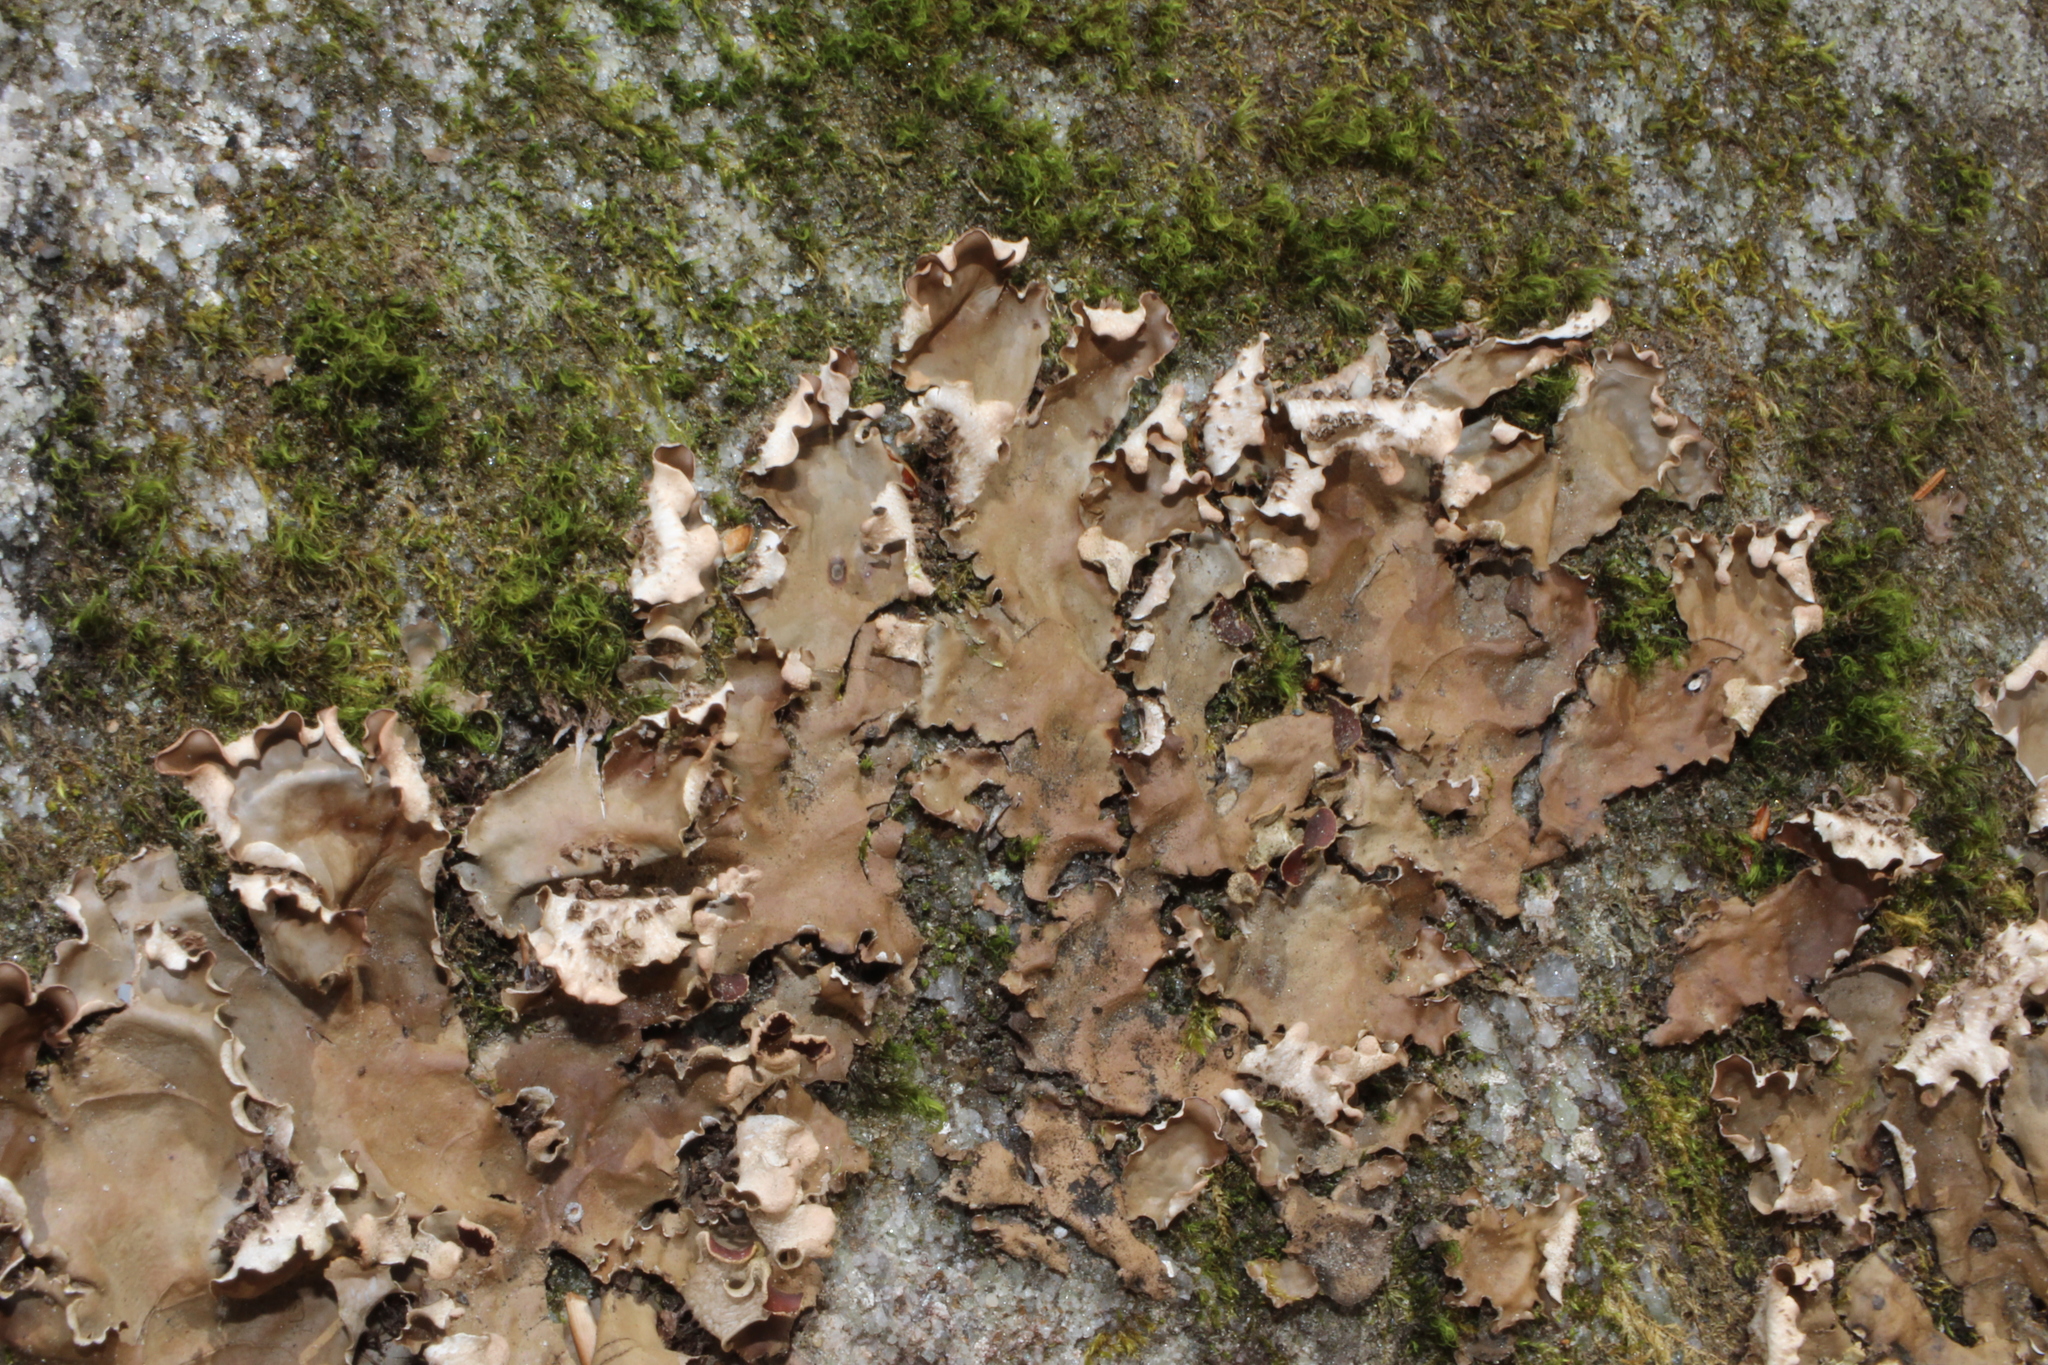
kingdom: Fungi
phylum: Ascomycota
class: Lecanoromycetes
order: Umbilicariales
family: Umbilicariaceae
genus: Umbilicaria
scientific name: Umbilicaria mammulata
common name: Smooth rock tripe
